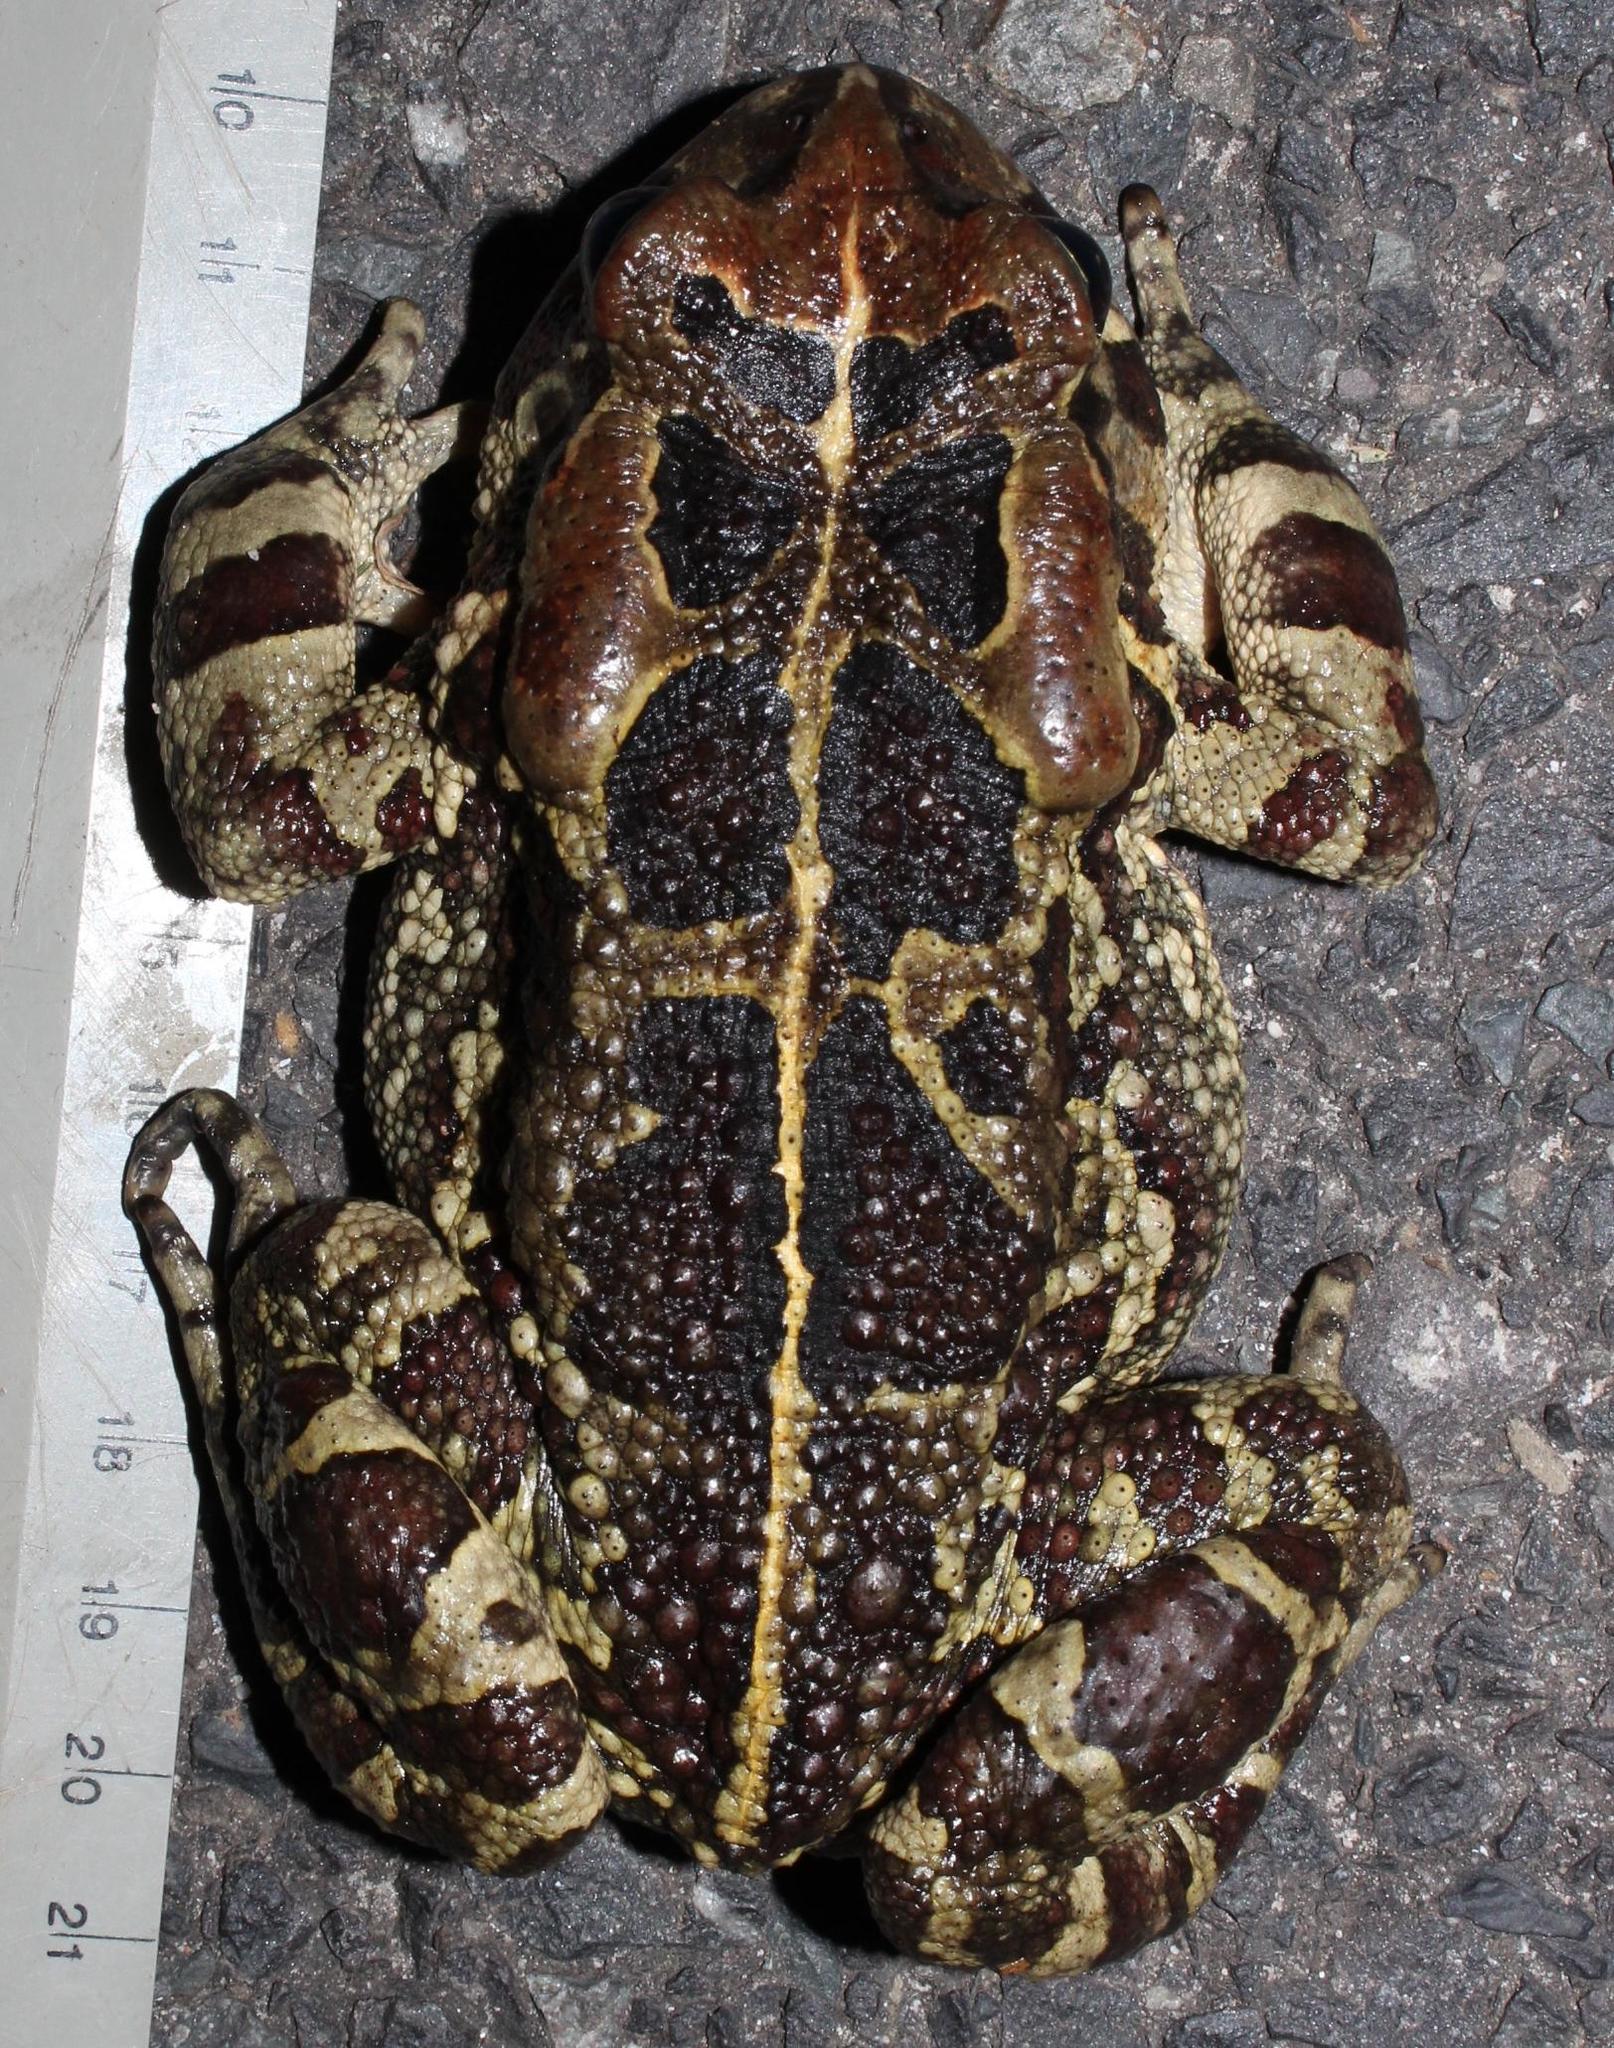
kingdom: Animalia
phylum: Chordata
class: Amphibia
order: Anura
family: Bufonidae
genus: Sclerophrys
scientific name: Sclerophrys pantherina
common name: Panther toad
